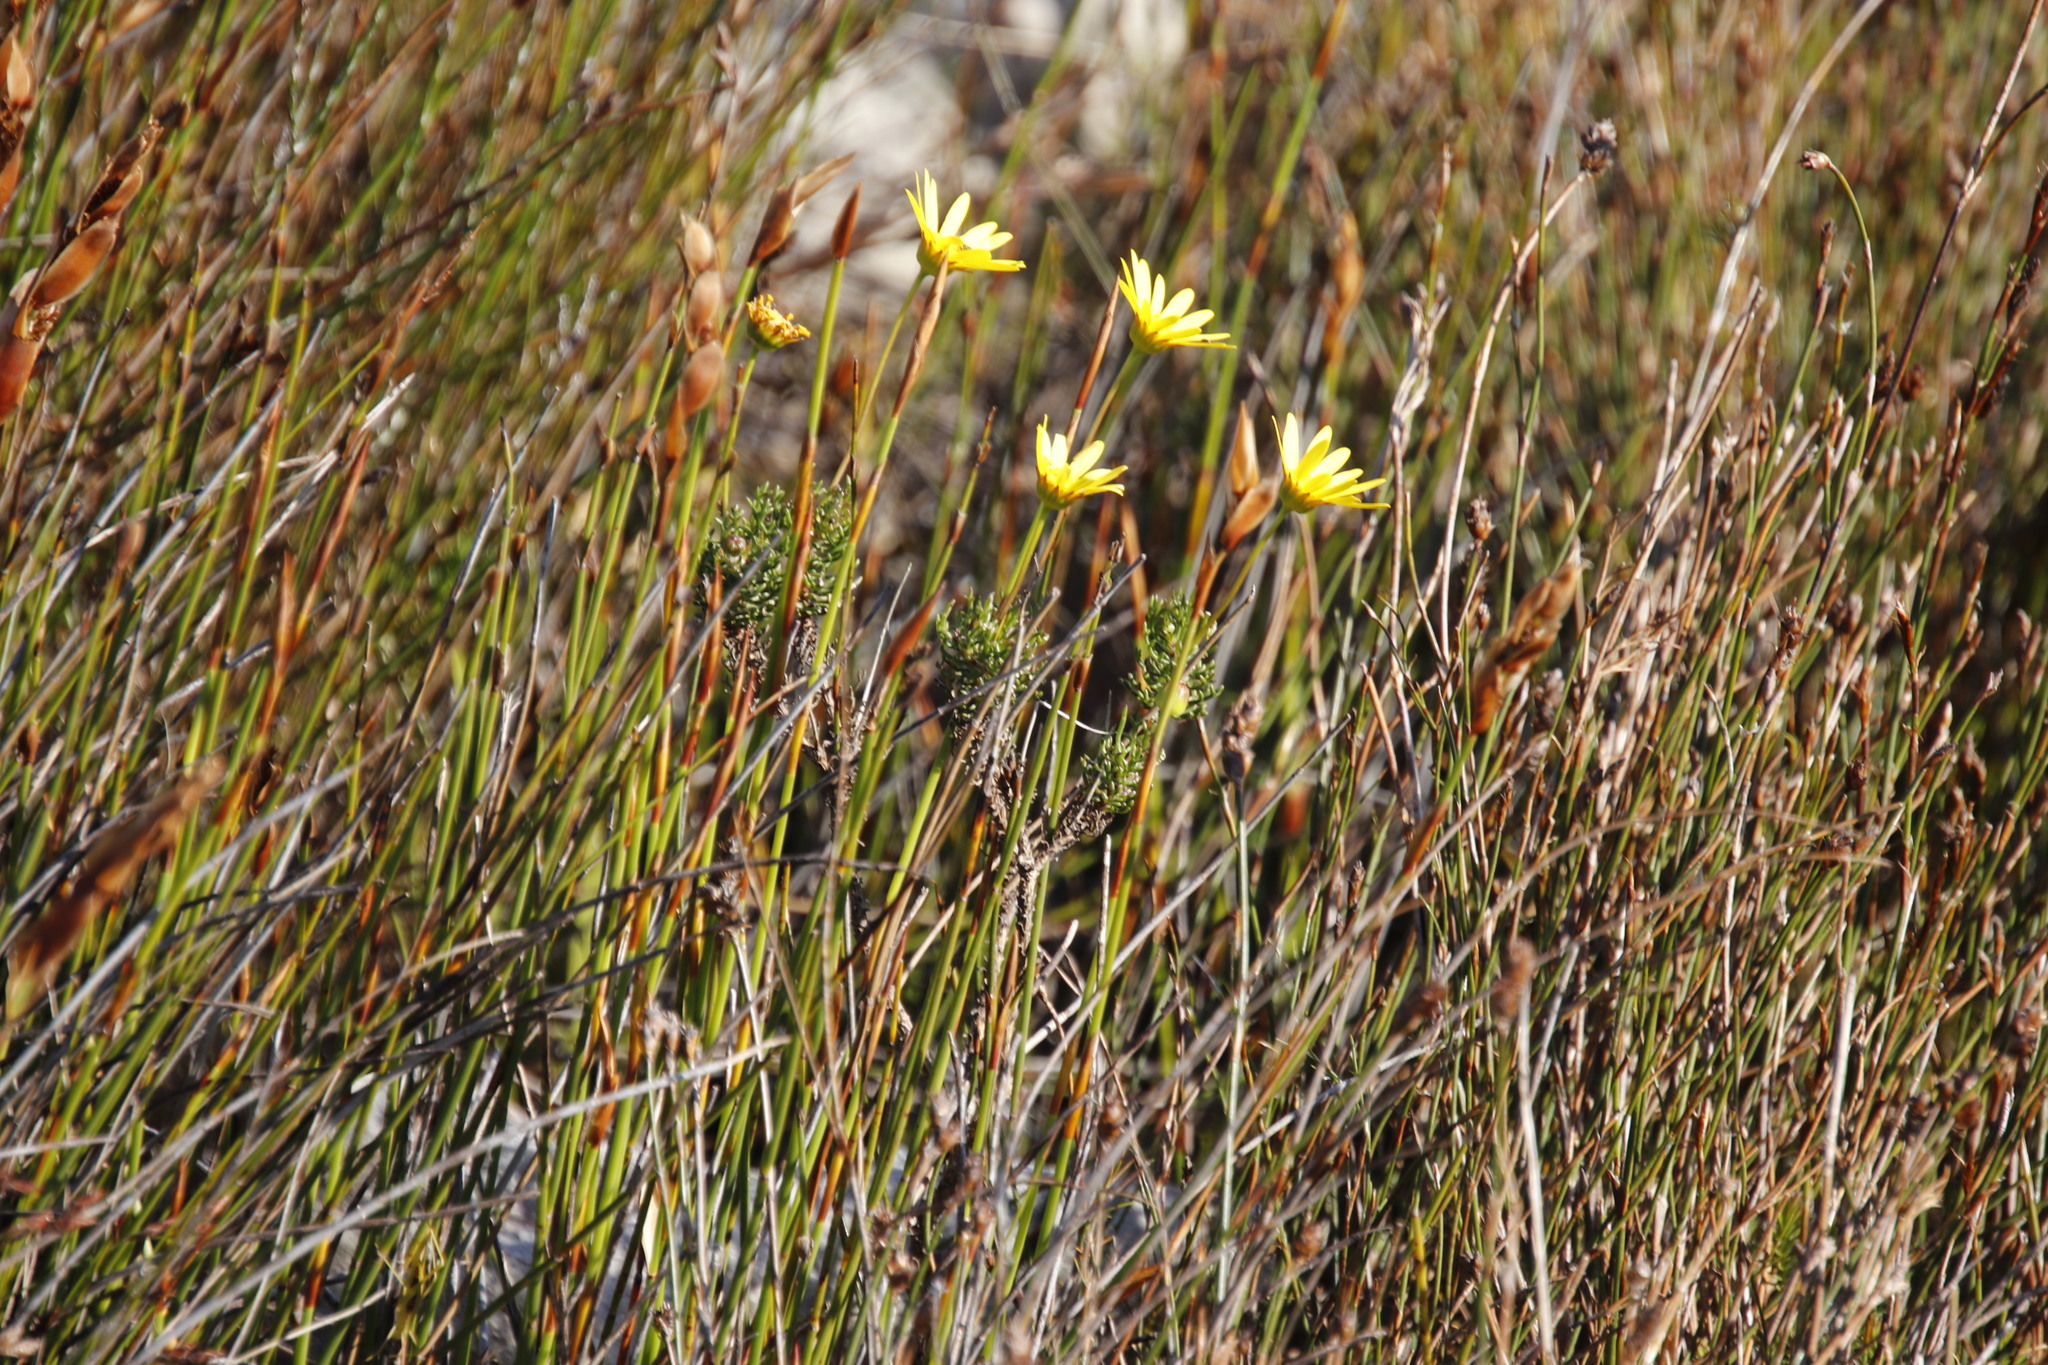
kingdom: Plantae
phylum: Tracheophyta
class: Magnoliopsida
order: Asterales
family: Asteraceae
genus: Euryops
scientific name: Euryops abrotanifolius
